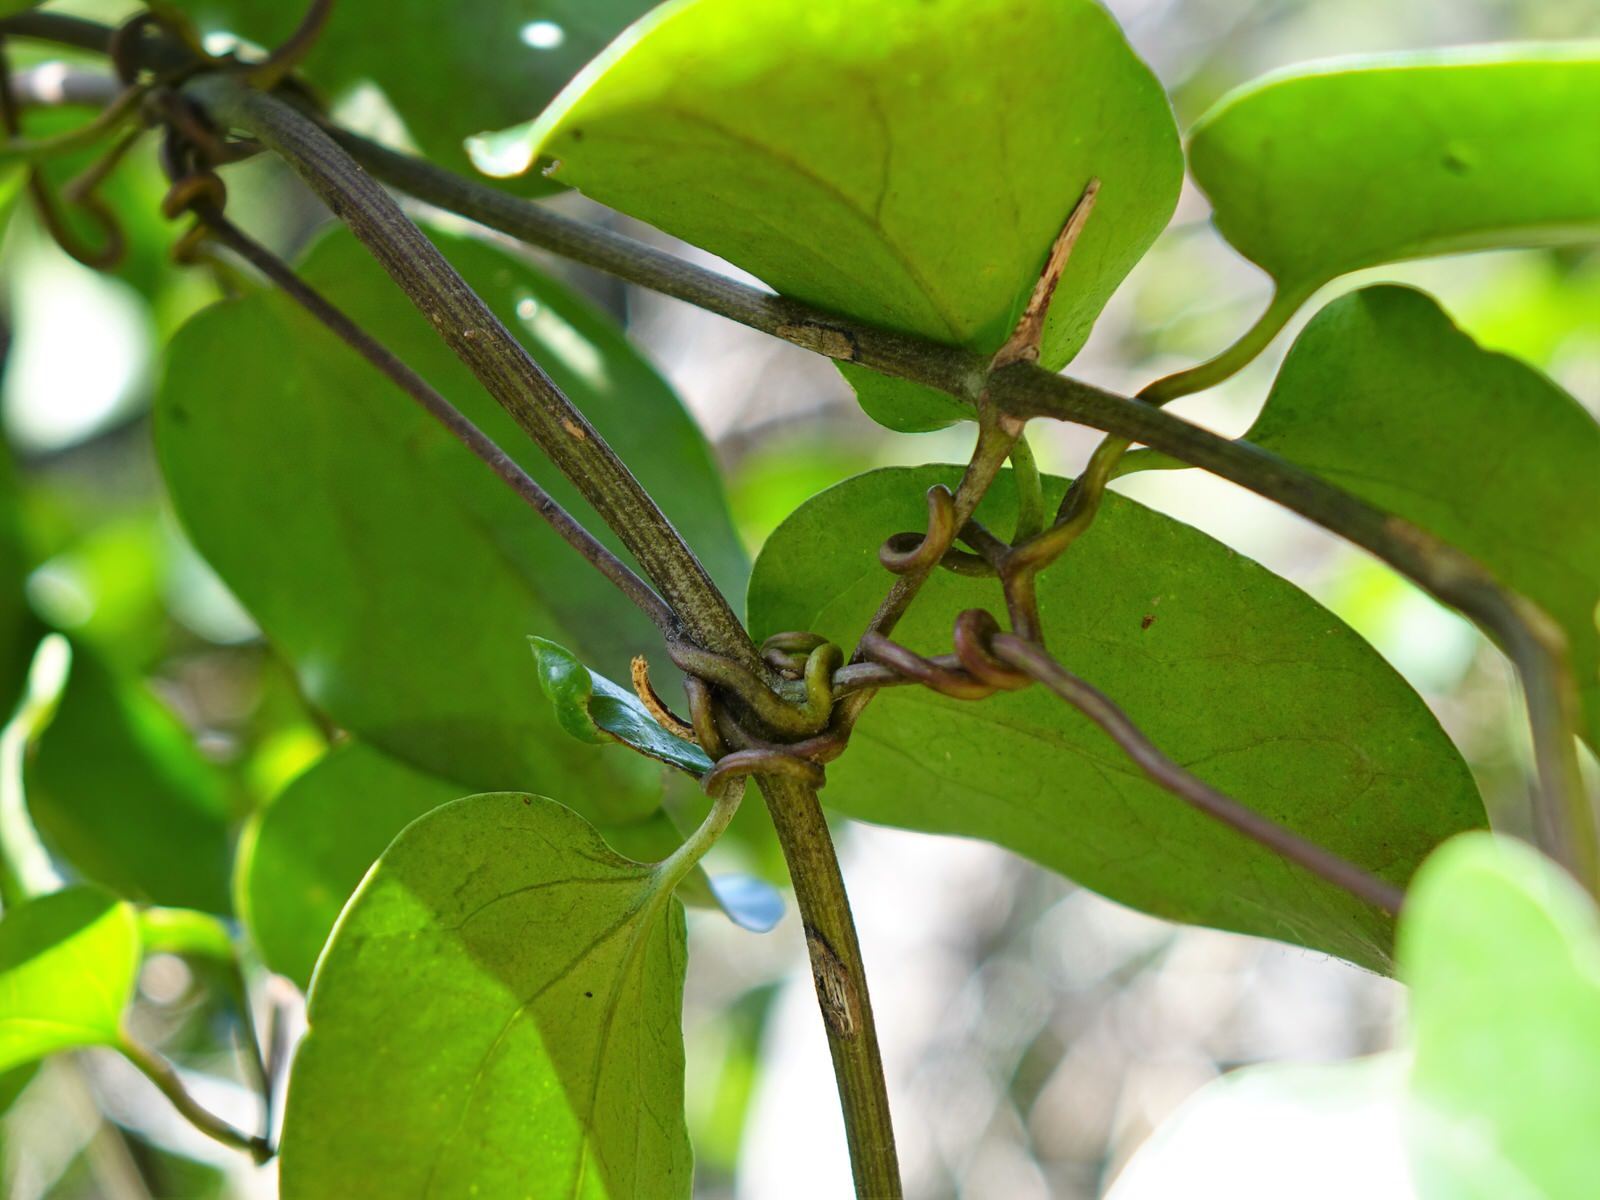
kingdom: Plantae
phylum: Tracheophyta
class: Magnoliopsida
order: Ranunculales
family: Ranunculaceae
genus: Clematis
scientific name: Clematis paniculata
